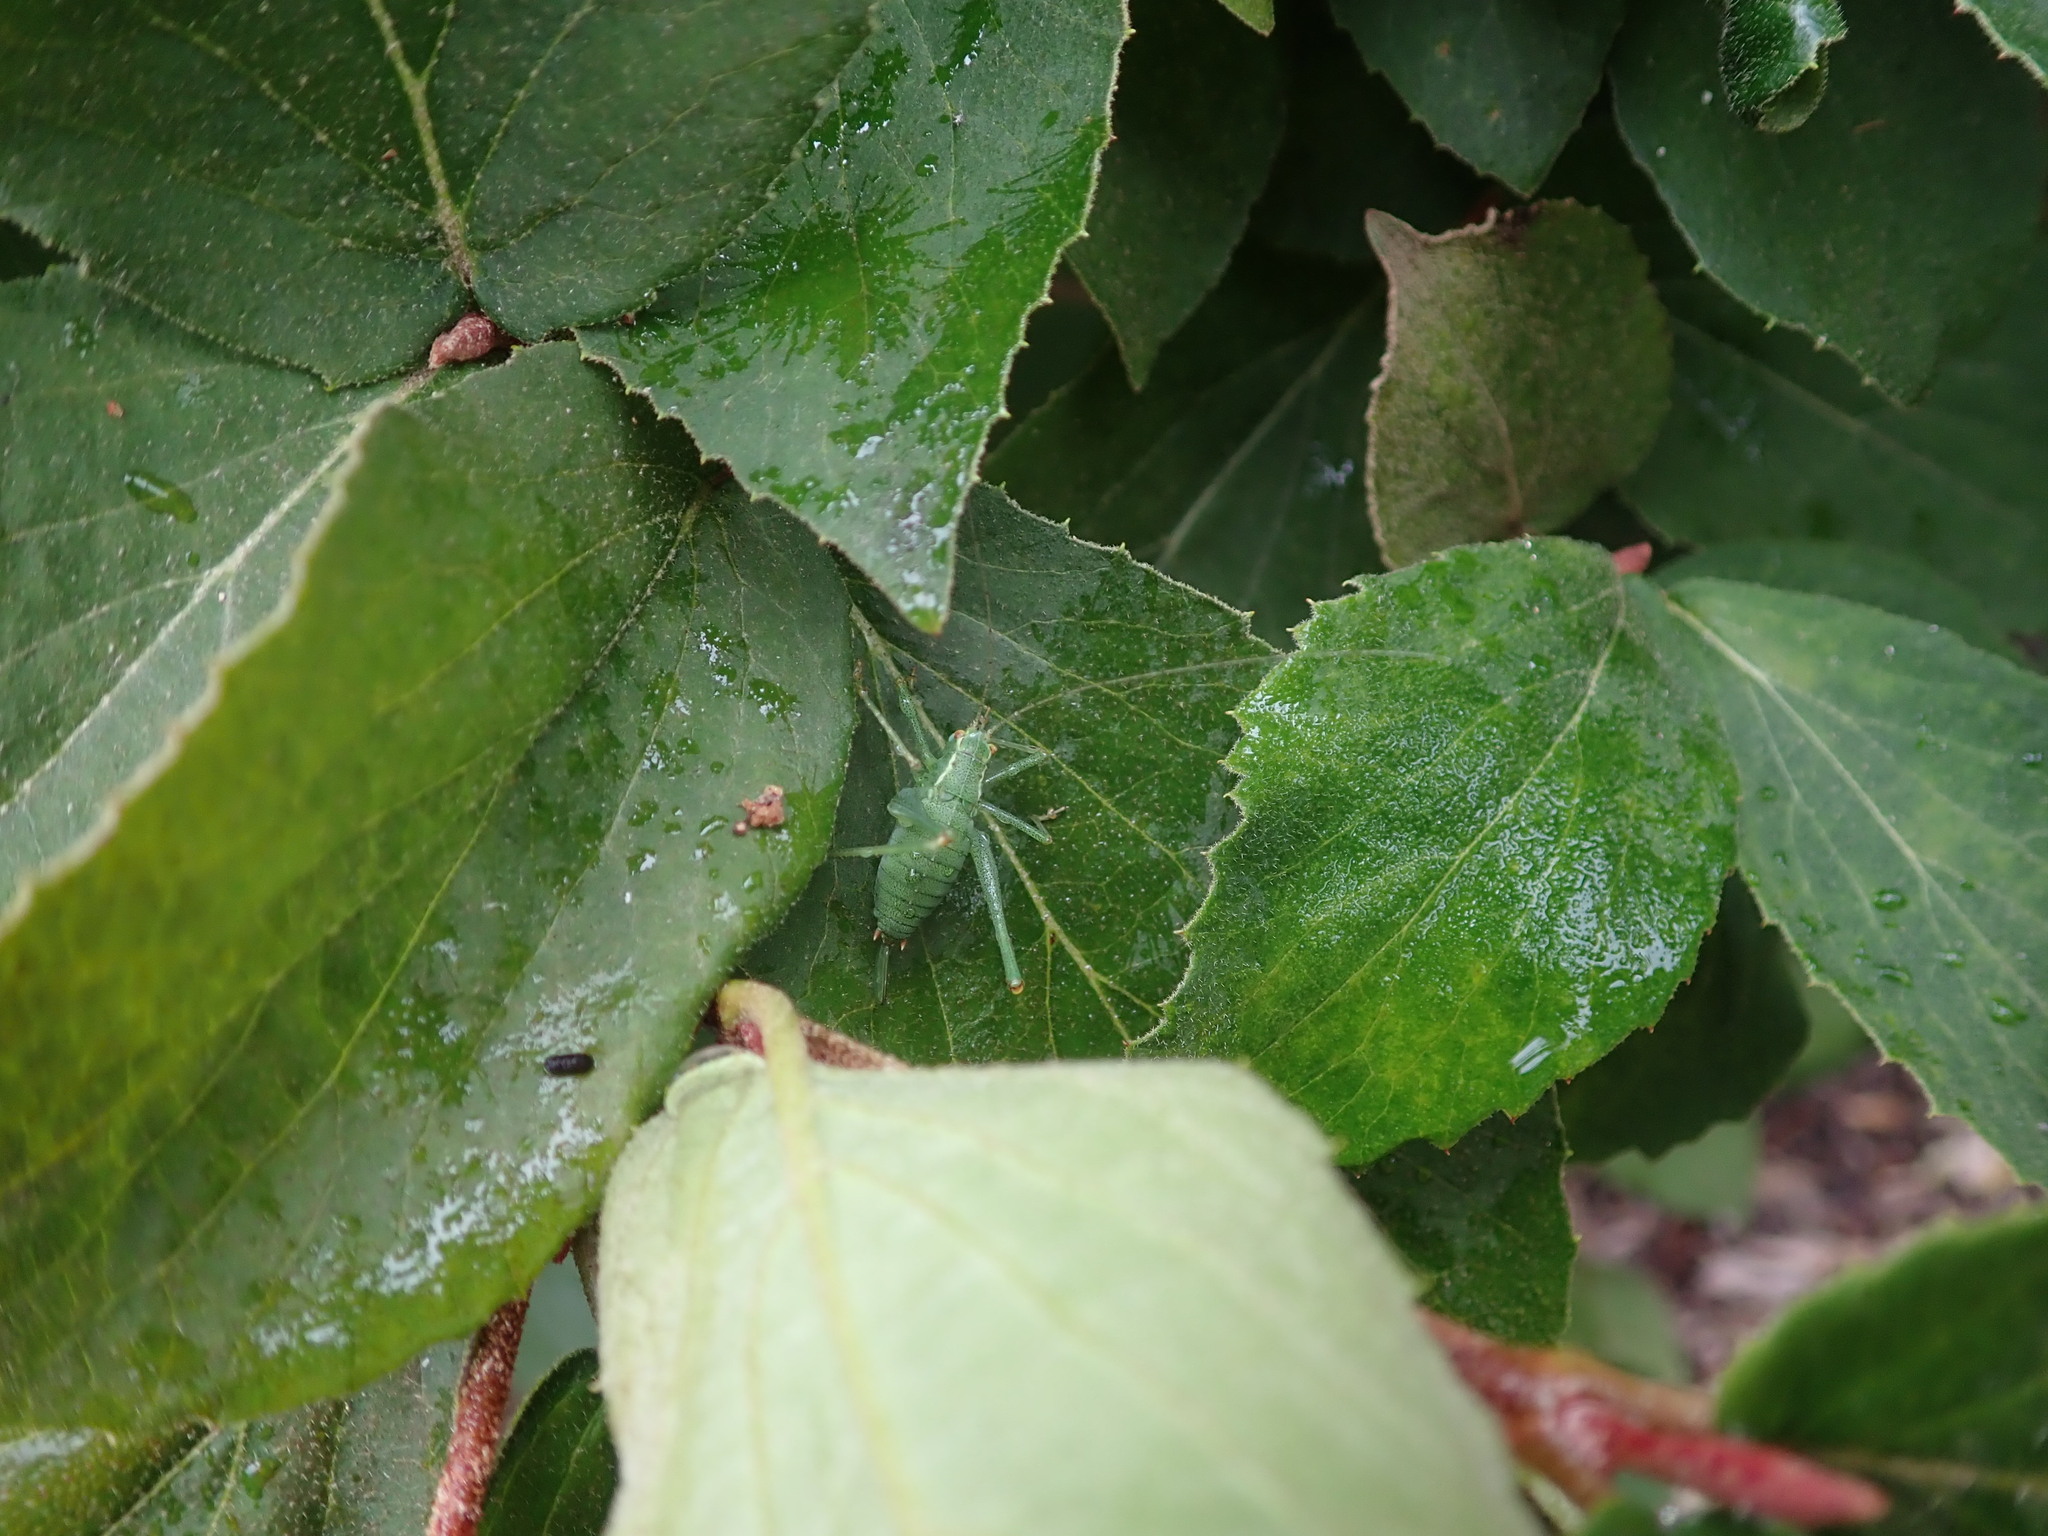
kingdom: Animalia
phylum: Arthropoda
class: Insecta
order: Orthoptera
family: Tettigoniidae
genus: Leptophyes
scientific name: Leptophyes punctatissima
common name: Speckled bush-cricket
